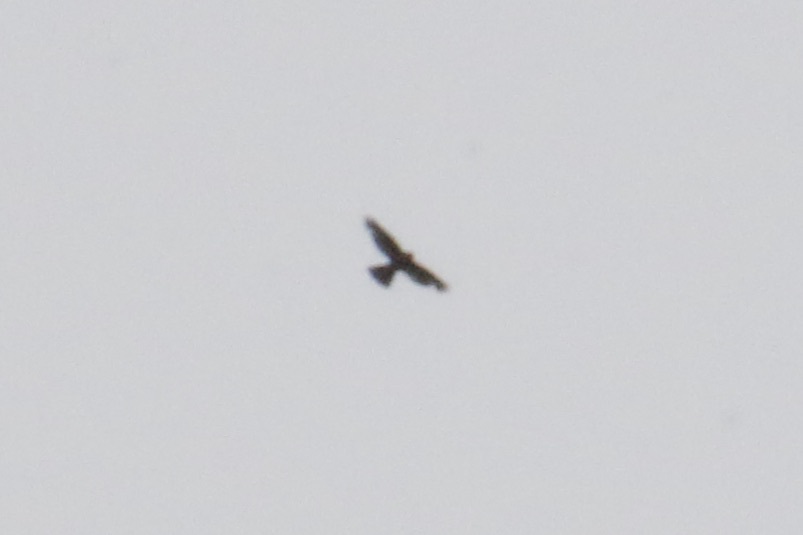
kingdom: Animalia
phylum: Chordata
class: Aves
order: Falconiformes
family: Falconidae
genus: Falco
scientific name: Falco novaeseelandiae
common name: New zealand falcon
